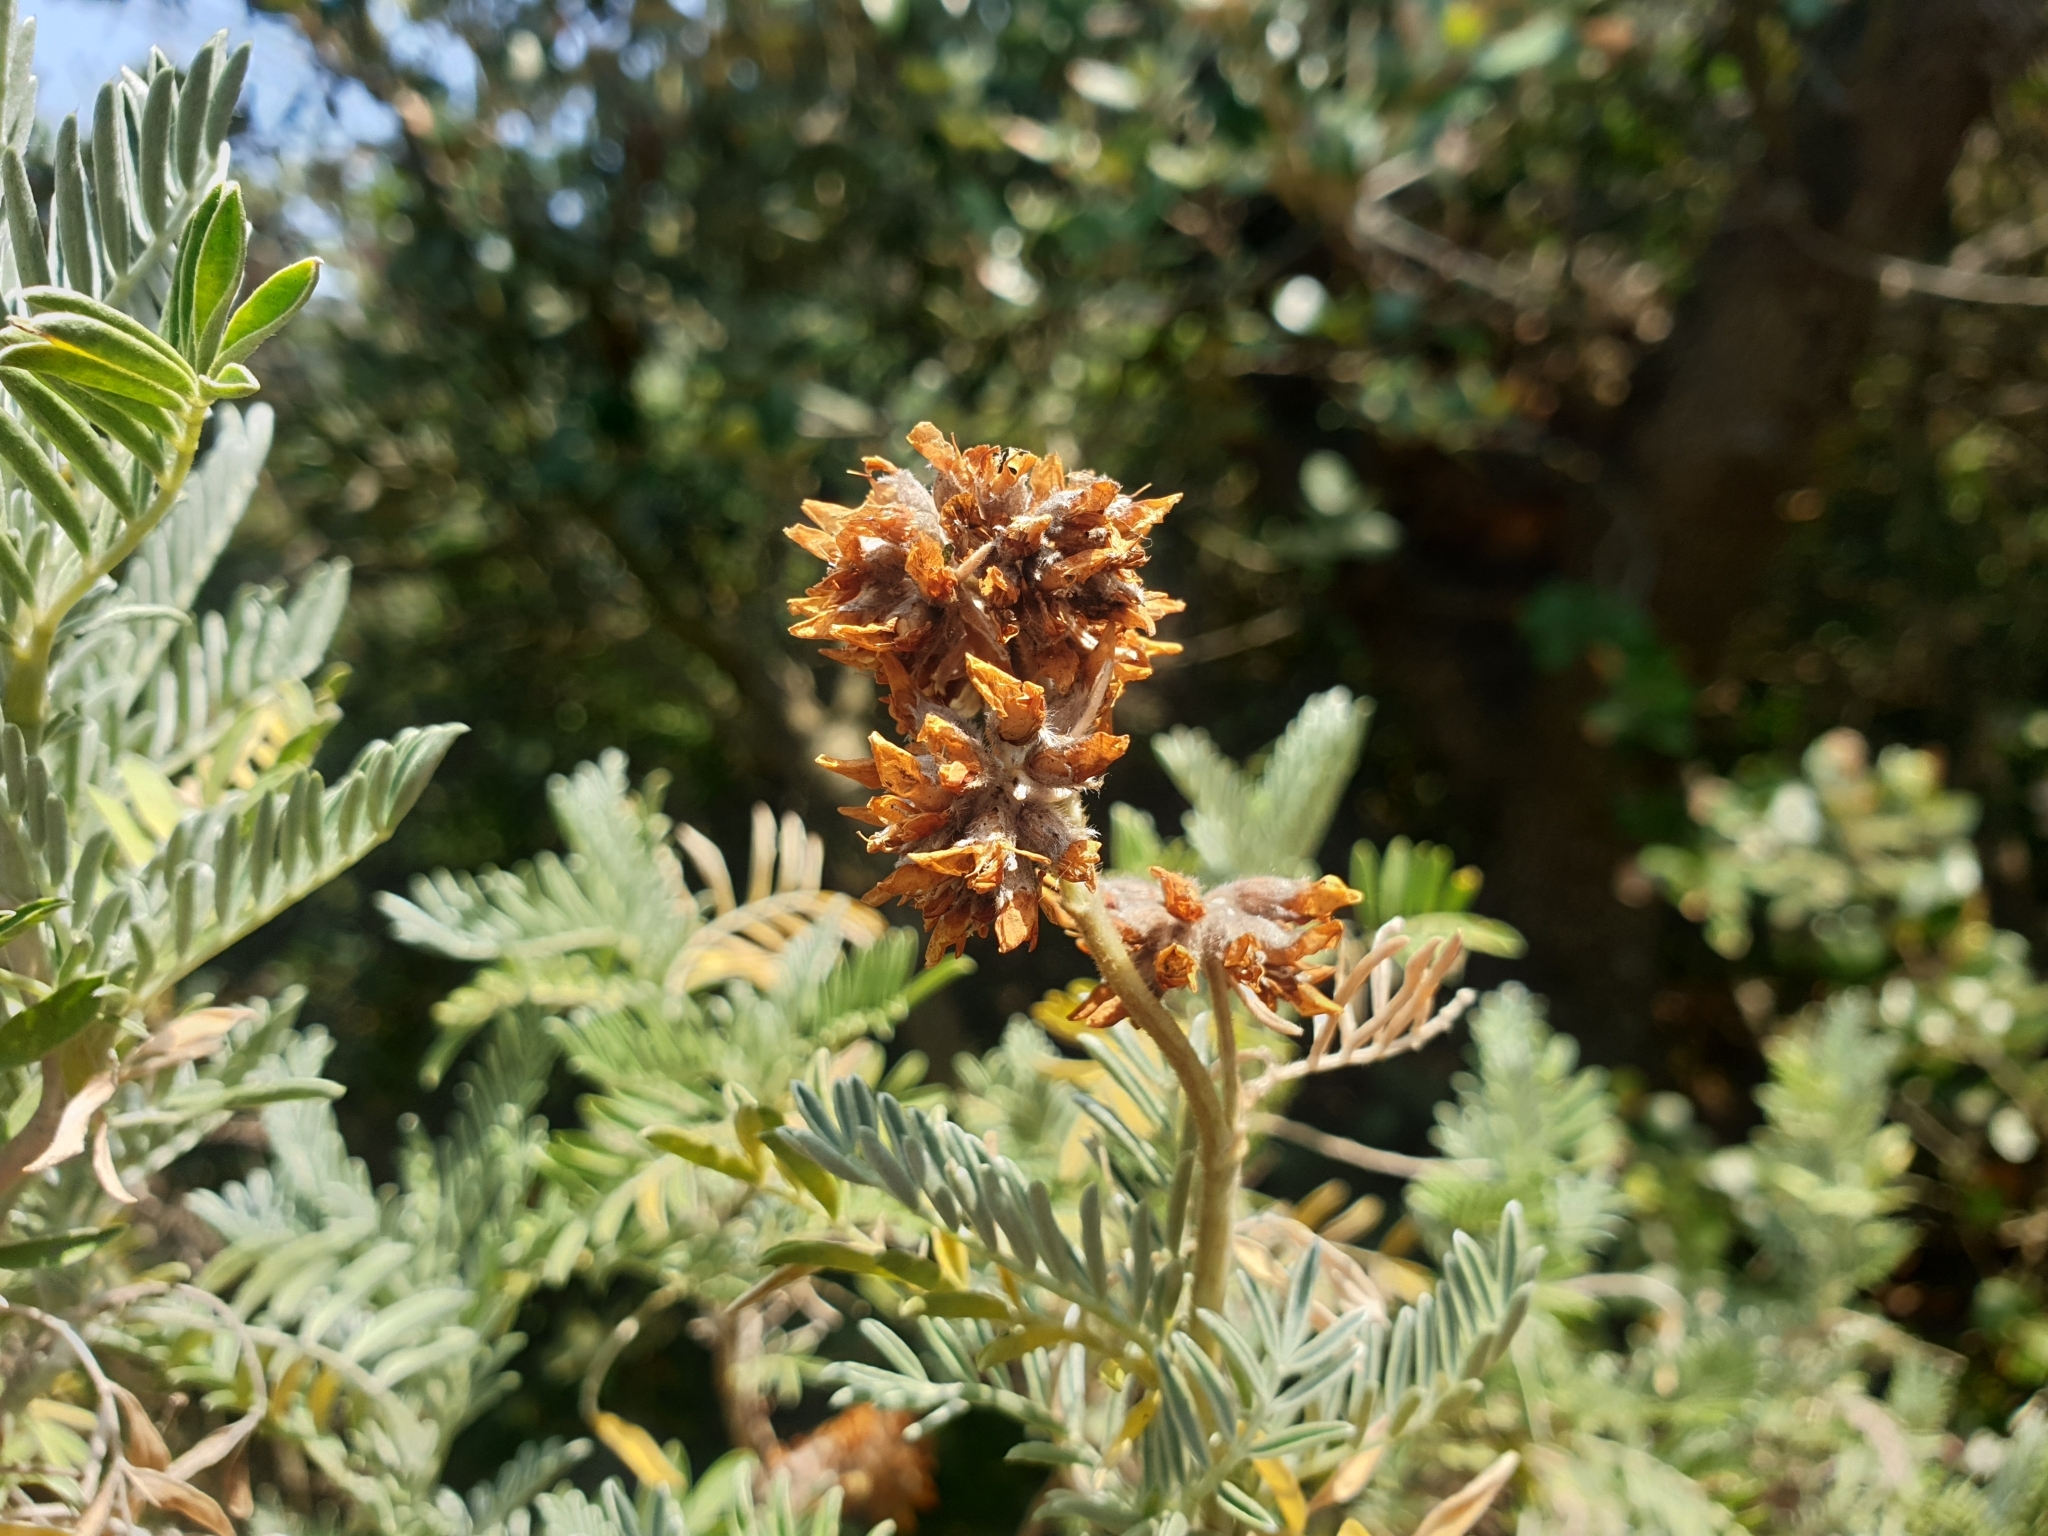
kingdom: Plantae
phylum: Tracheophyta
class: Magnoliopsida
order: Fabales
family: Fabaceae
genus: Anthyllis
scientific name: Anthyllis barba-jovis
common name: Jupiter's-beard
